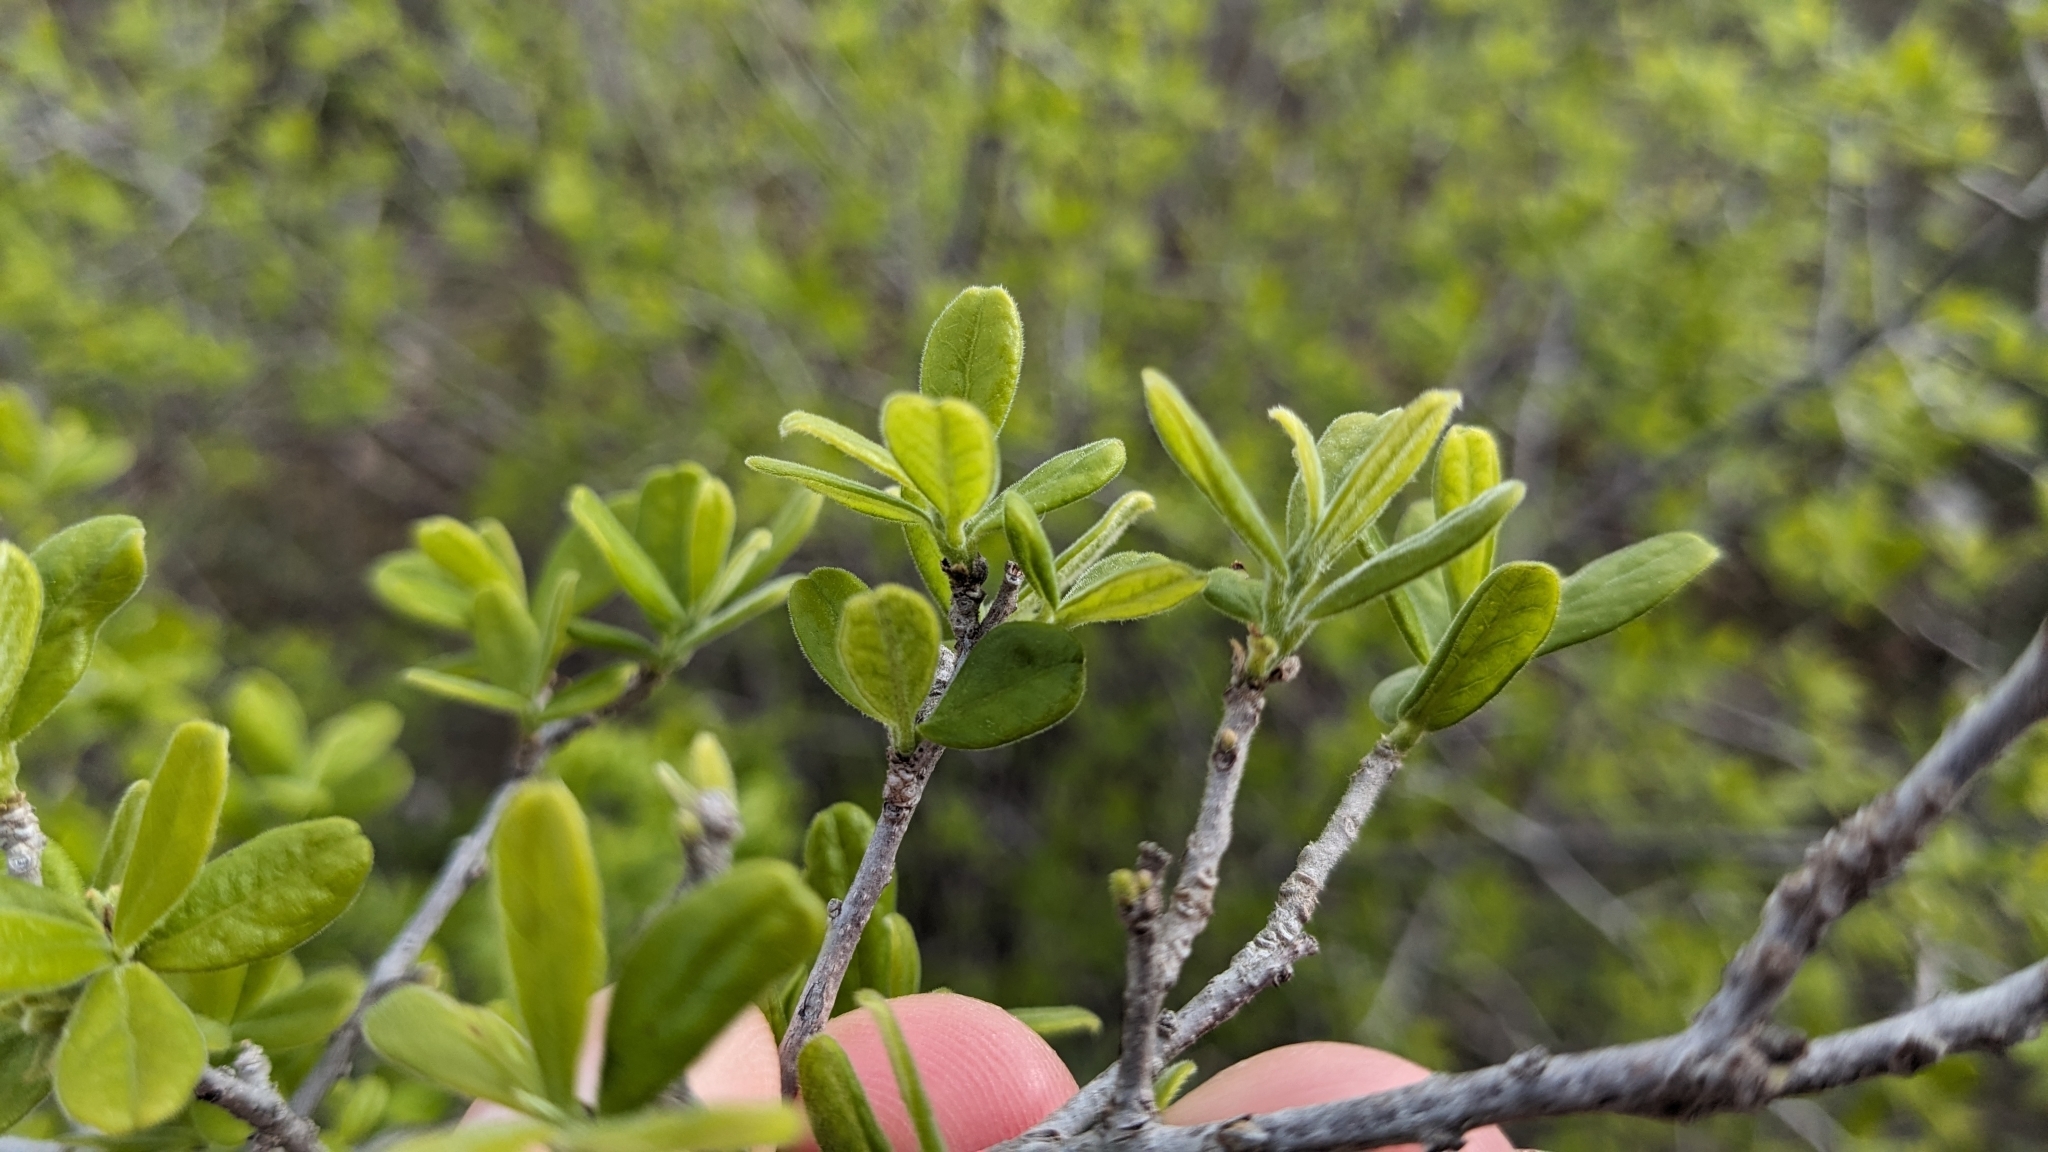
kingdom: Plantae
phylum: Tracheophyta
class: Magnoliopsida
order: Ericales
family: Ebenaceae
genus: Diospyros
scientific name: Diospyros texana
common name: Texas persimmon
